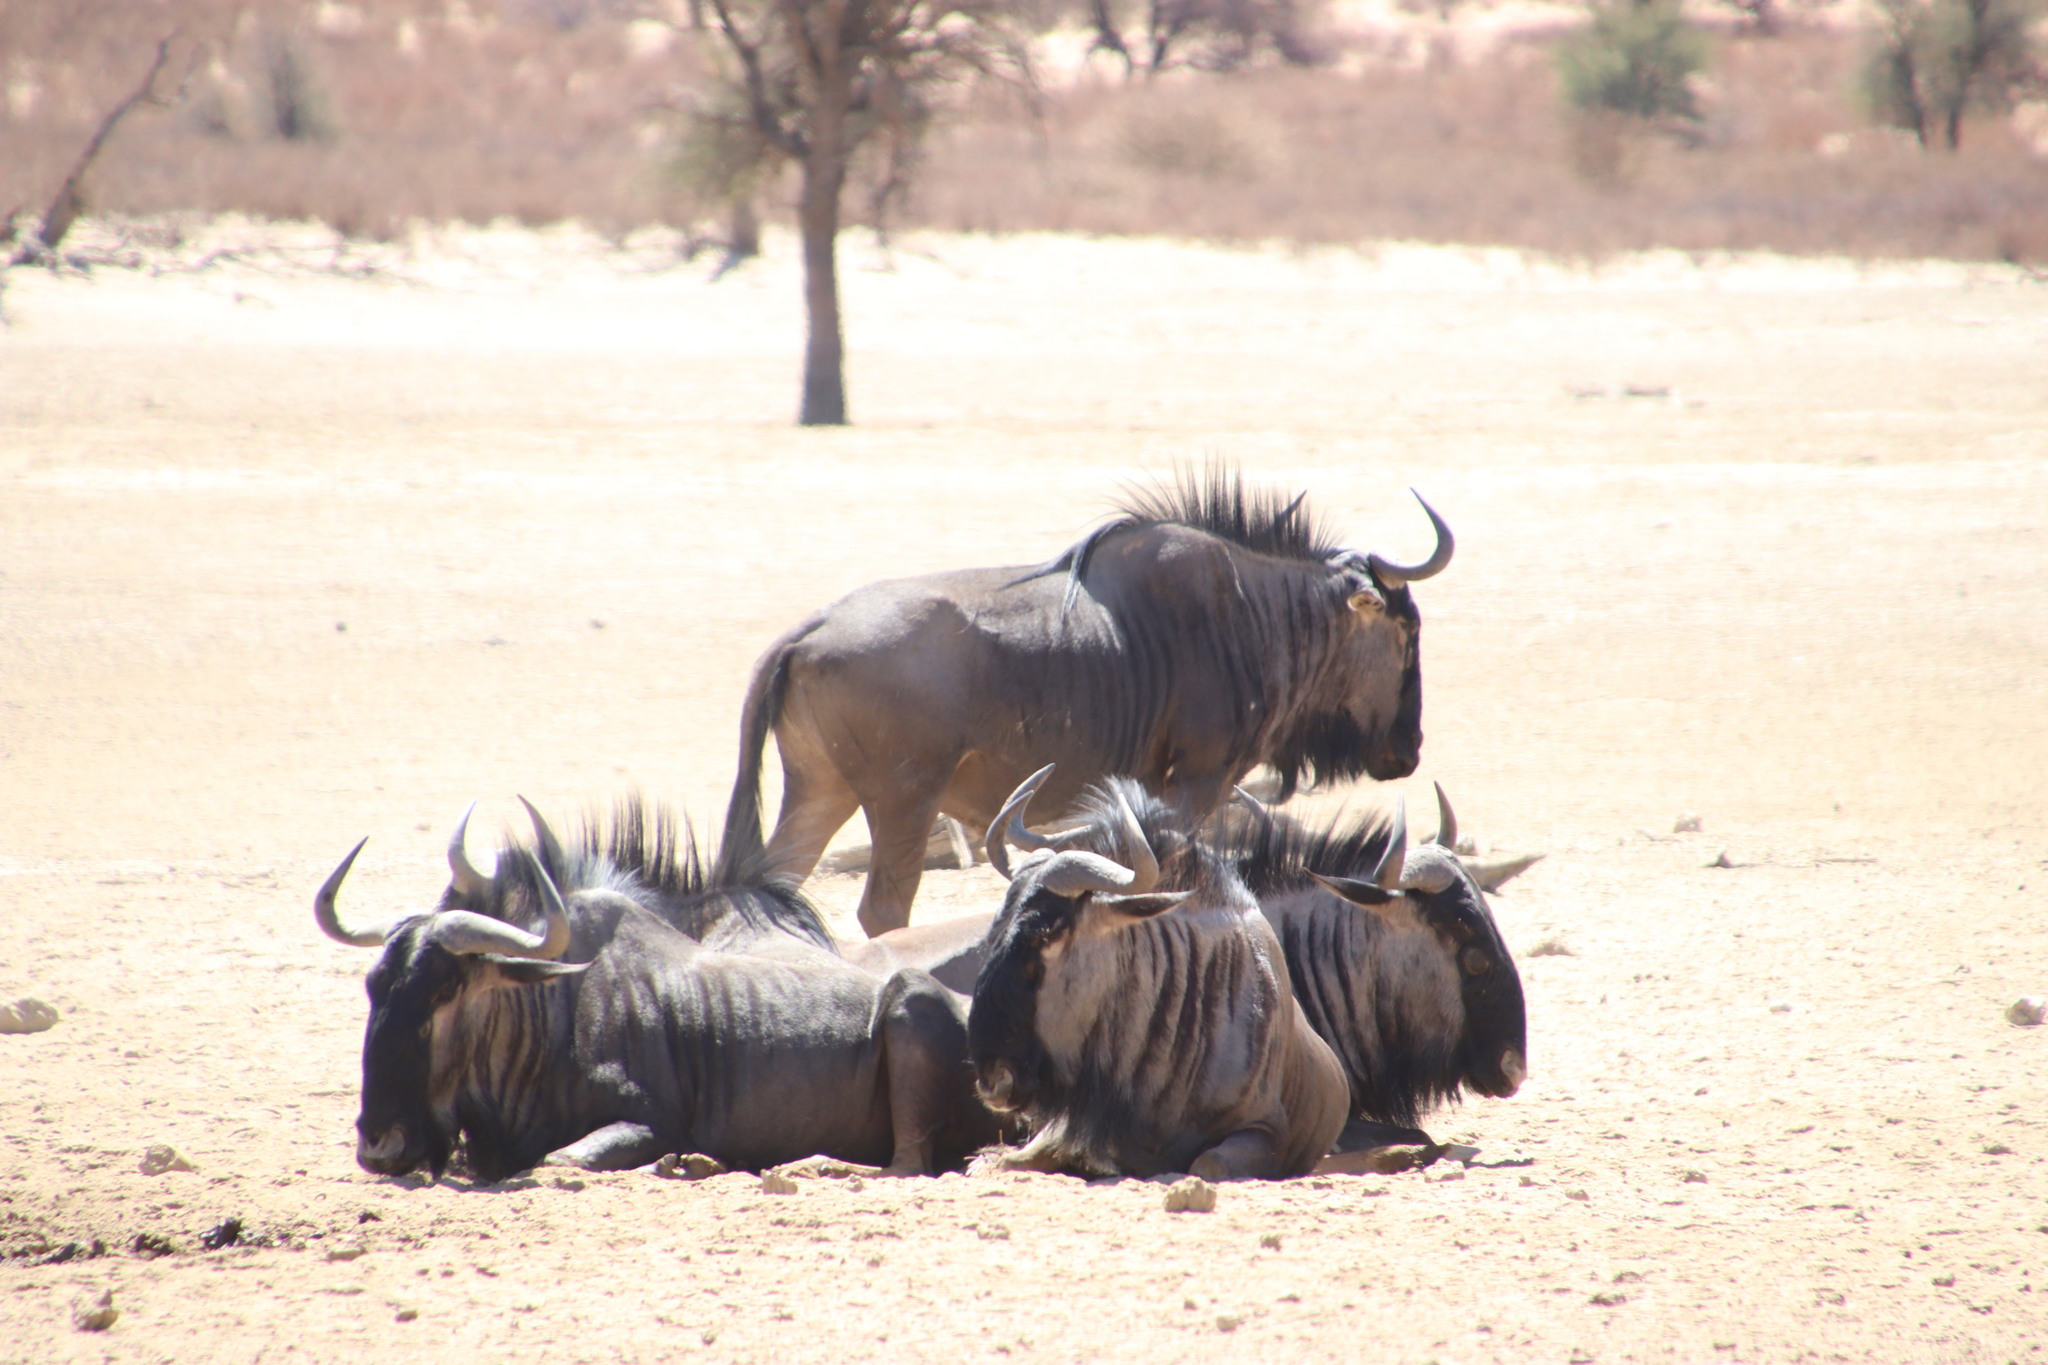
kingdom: Animalia
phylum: Chordata
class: Mammalia
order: Artiodactyla
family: Bovidae
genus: Connochaetes
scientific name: Connochaetes taurinus
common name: Blue wildebeest
